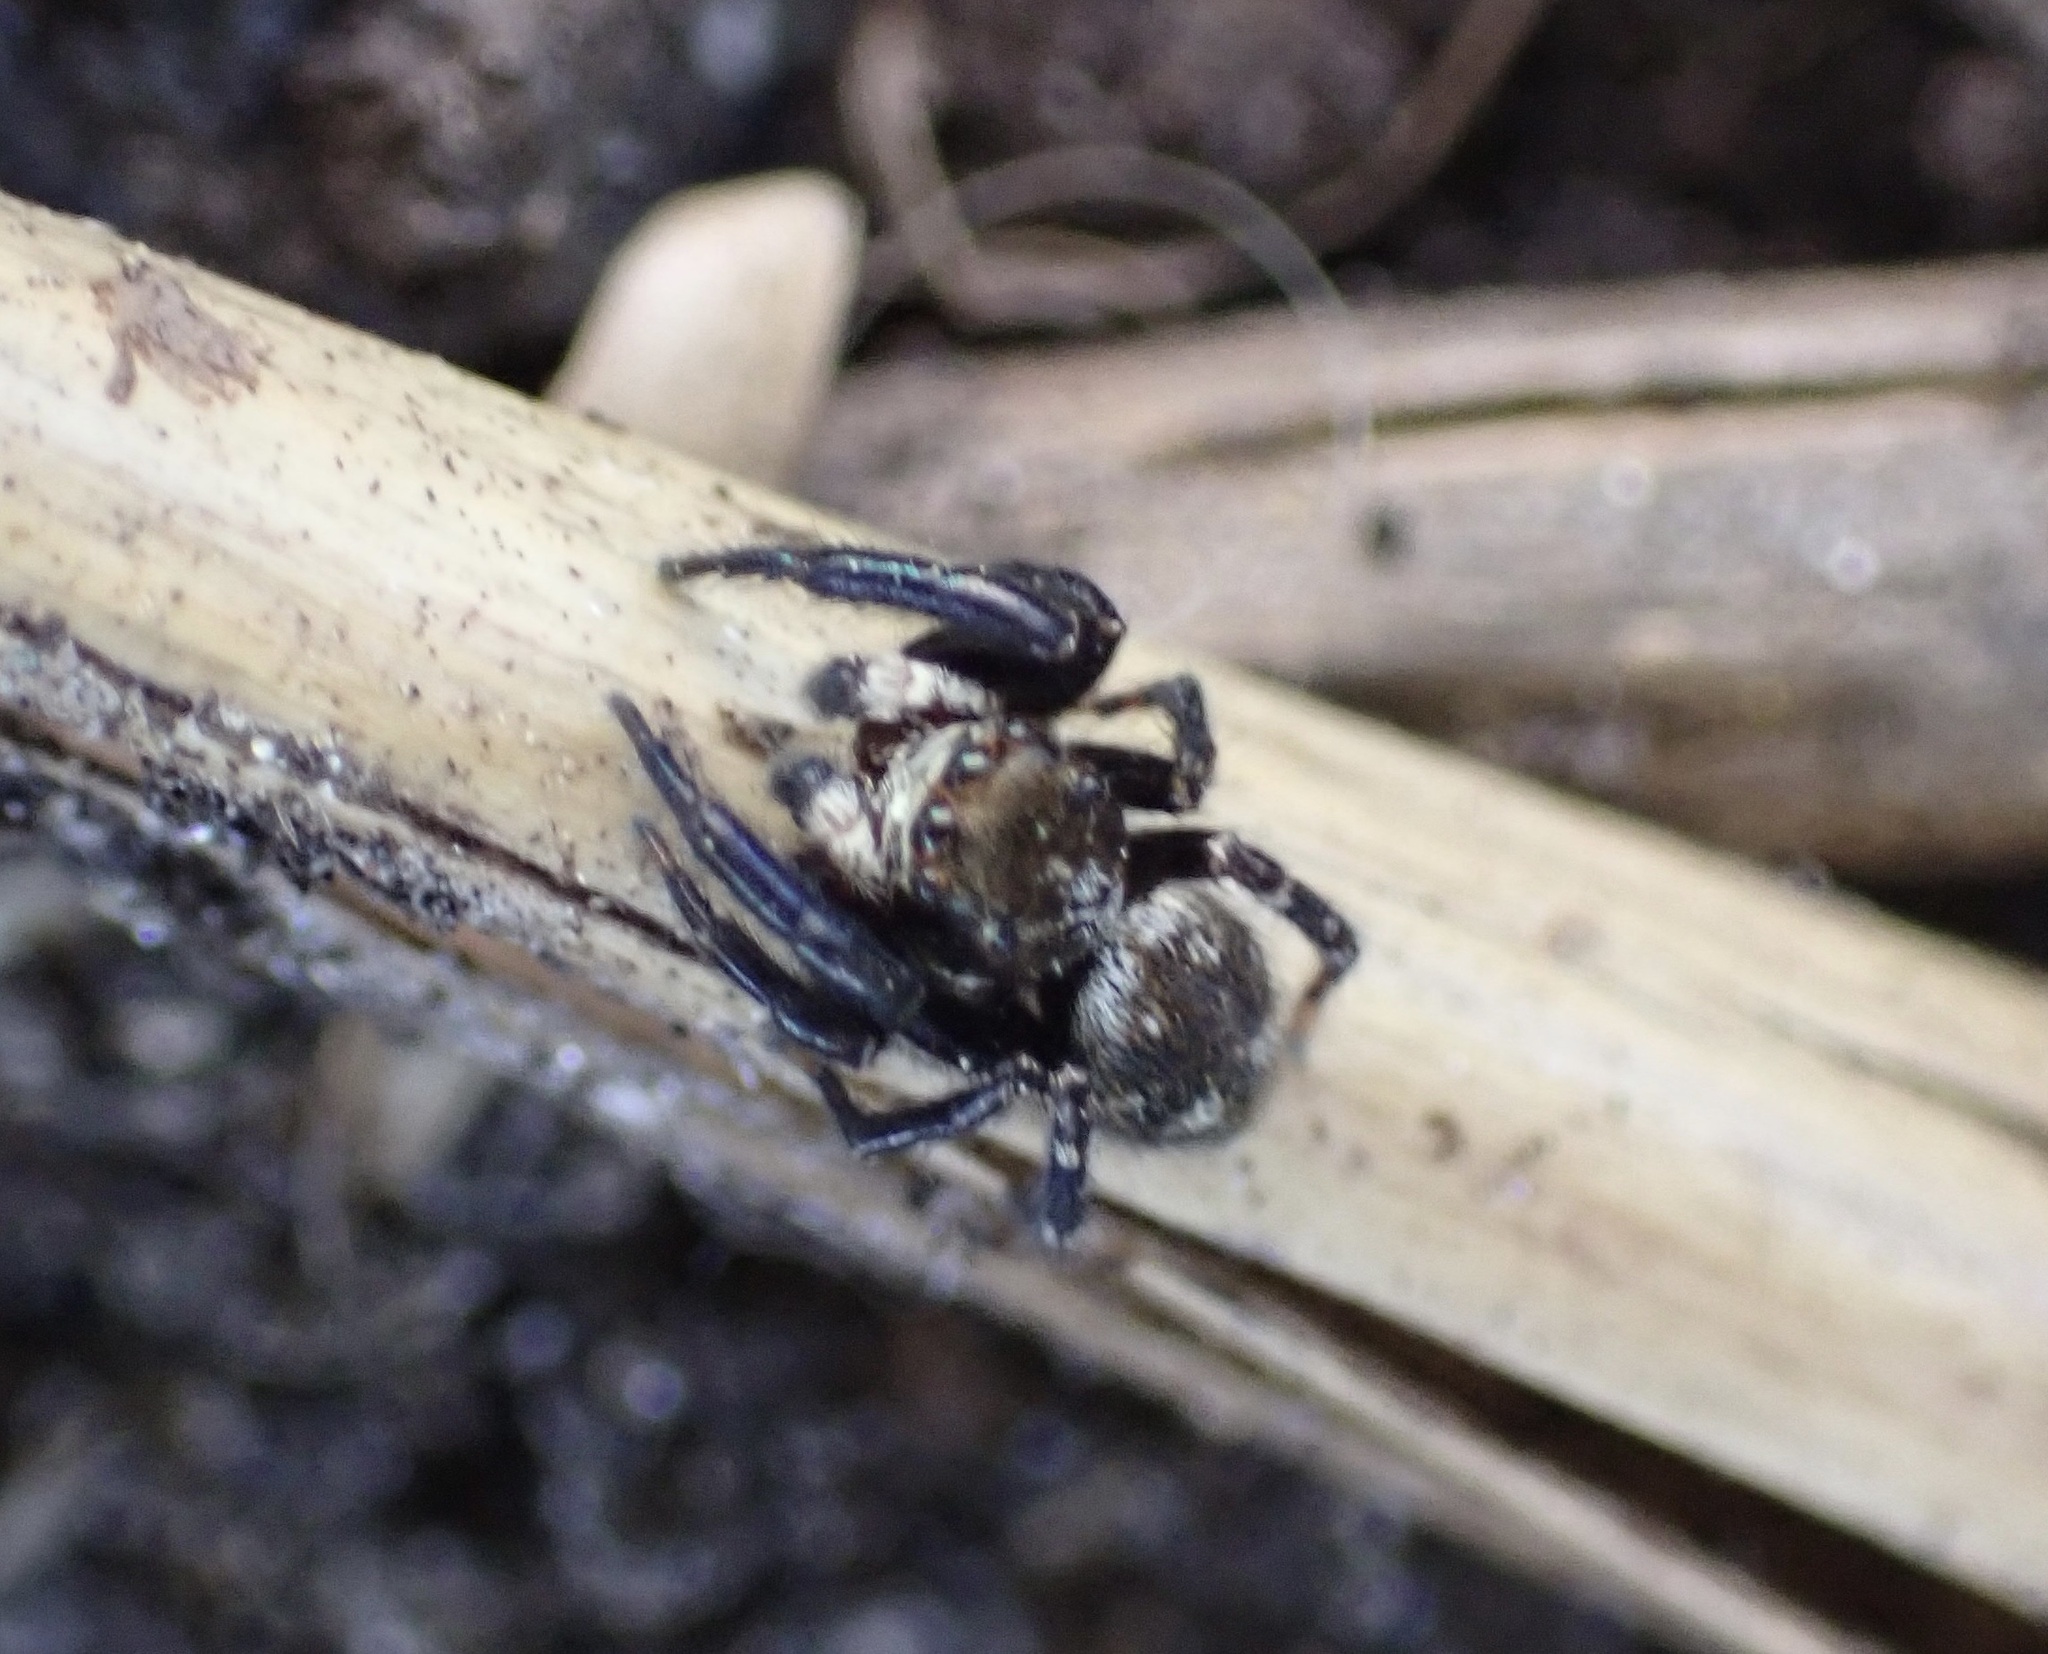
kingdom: Animalia
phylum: Arthropoda
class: Arachnida
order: Araneae
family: Salticidae
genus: Pseudeuophrys
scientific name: Pseudeuophrys erratica
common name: Jumping spider
